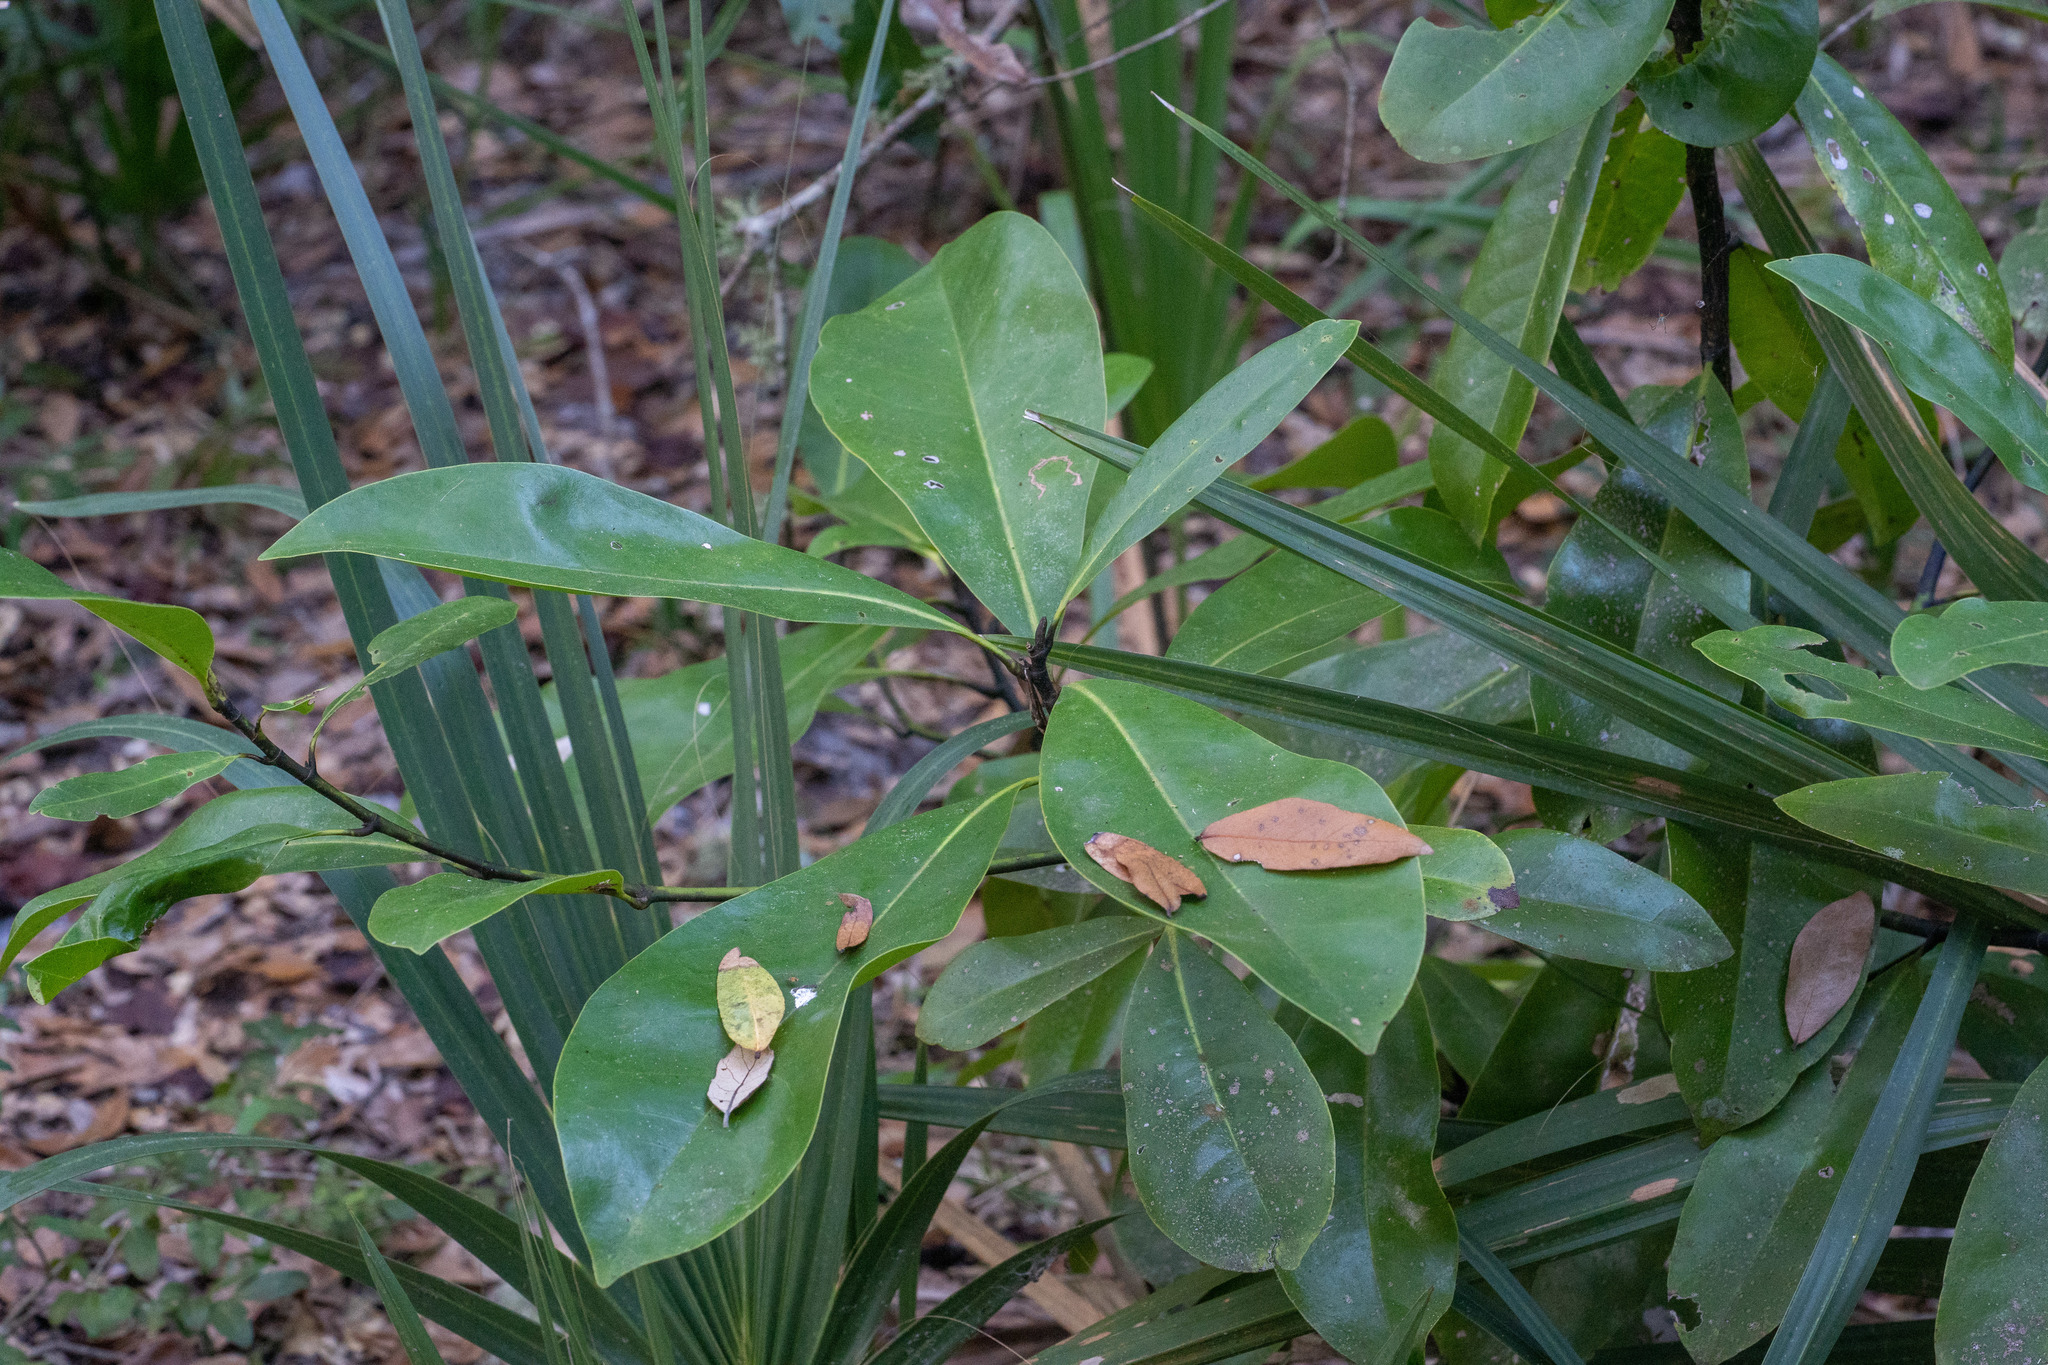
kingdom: Plantae
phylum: Tracheophyta
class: Magnoliopsida
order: Magnoliales
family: Magnoliaceae
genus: Magnolia
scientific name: Magnolia grandiflora
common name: Southern magnolia
